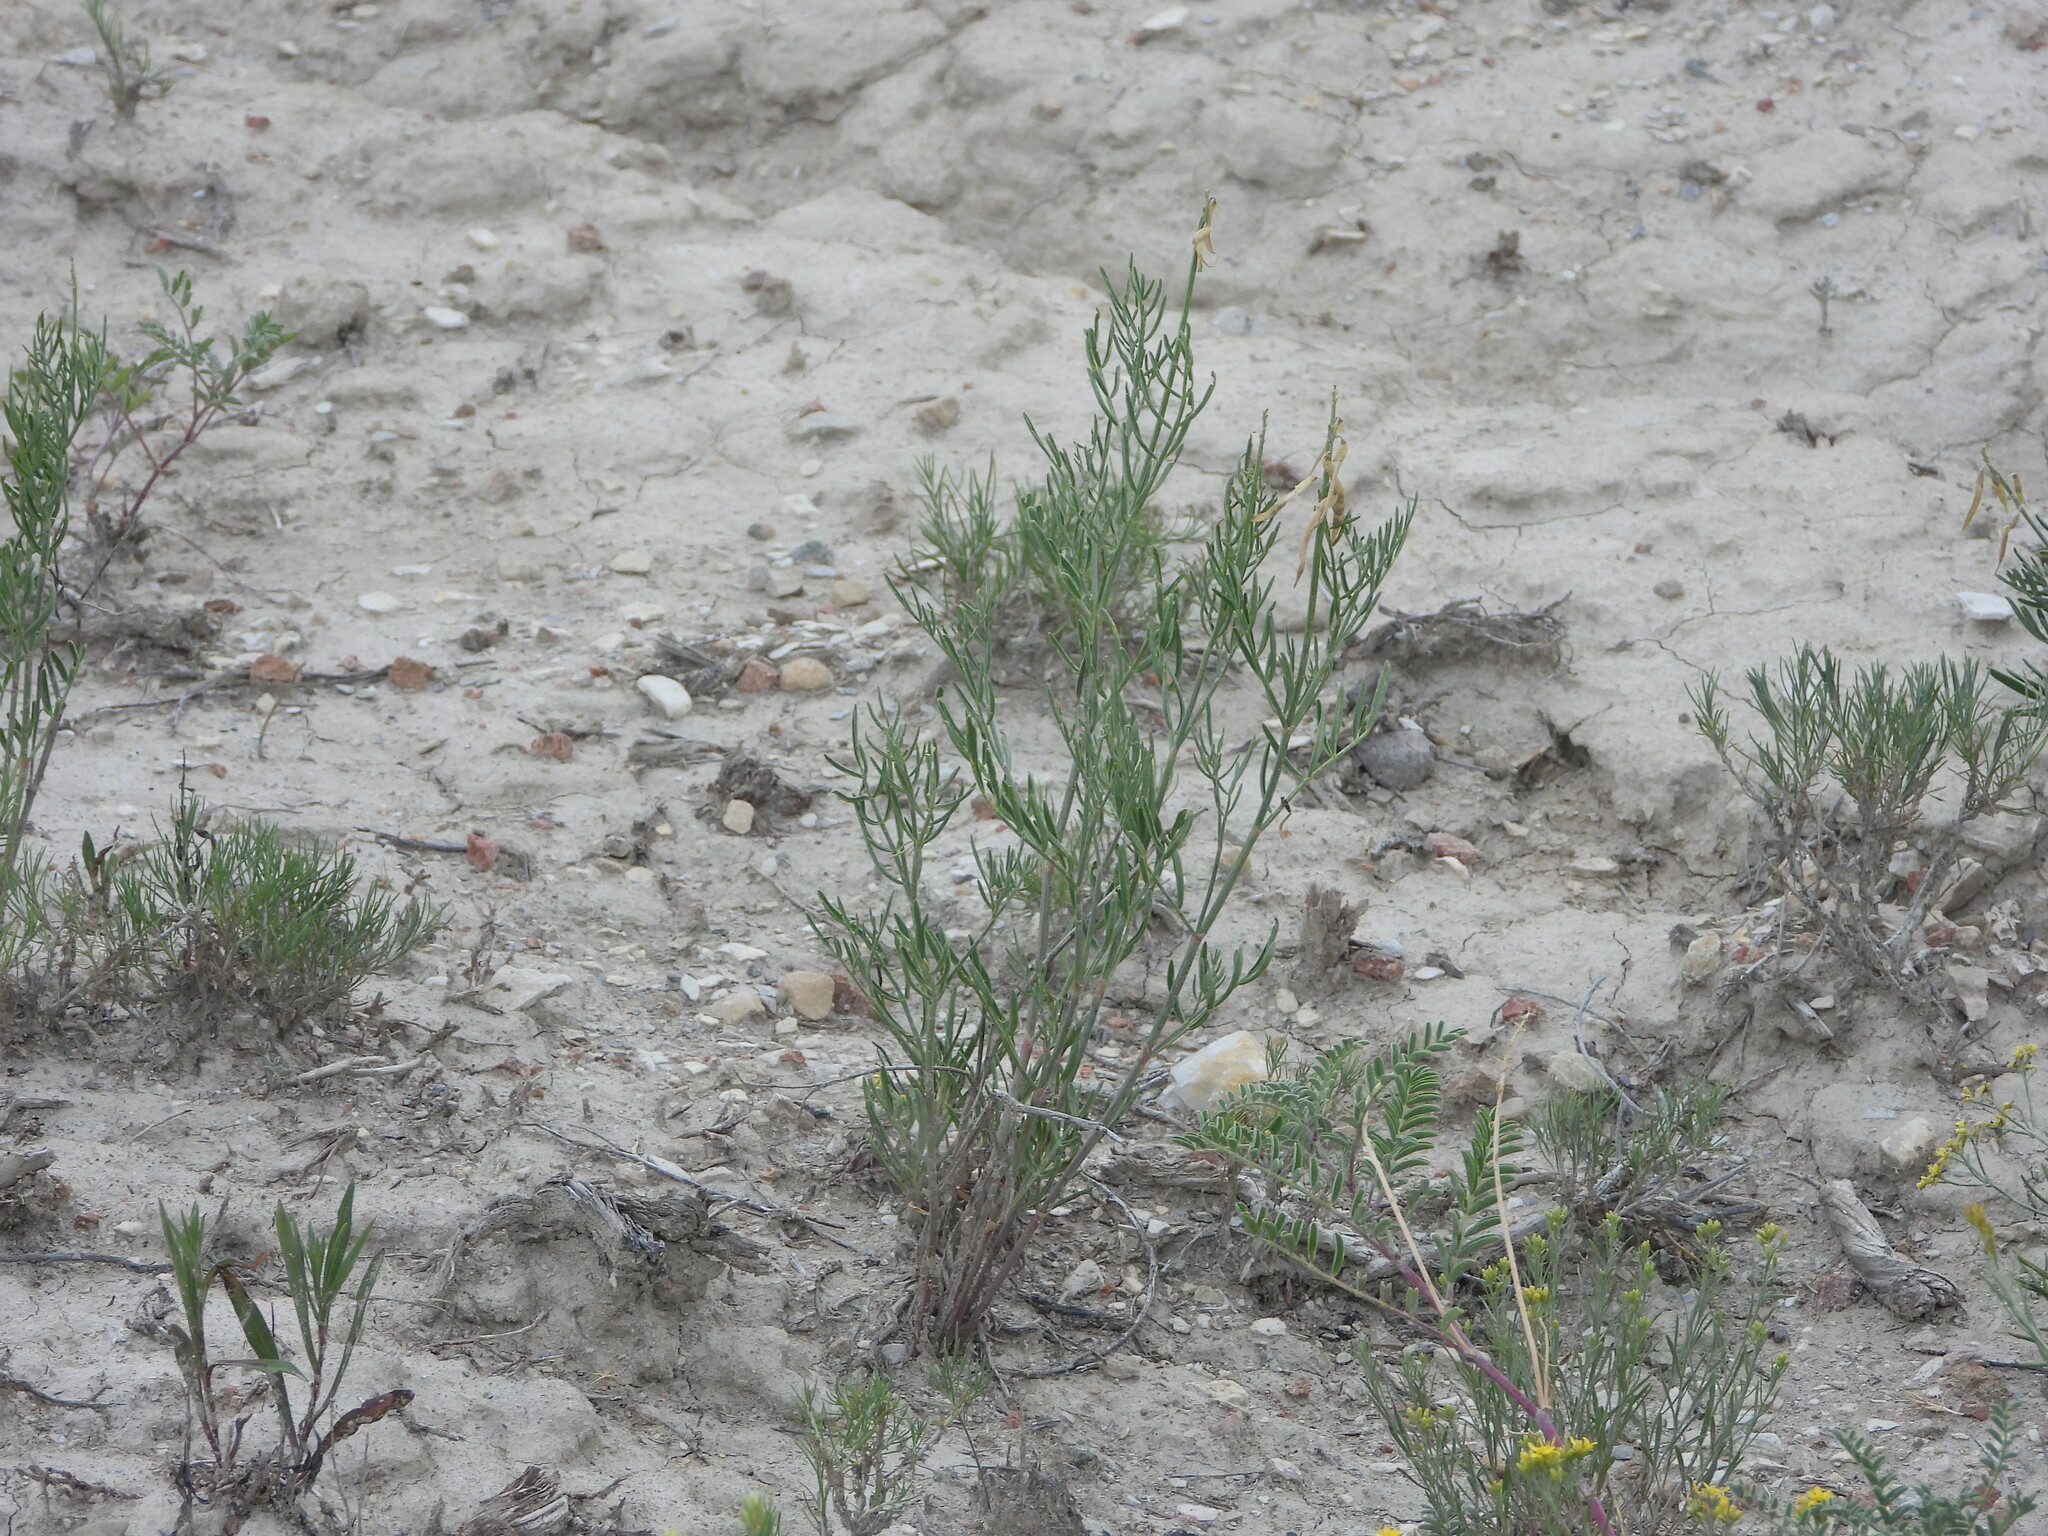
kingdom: Plantae
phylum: Tracheophyta
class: Magnoliopsida
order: Fabales
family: Fabaceae
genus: Astragalus
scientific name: Astragalus osterhoutii
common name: Osterhout's milk-vetch
